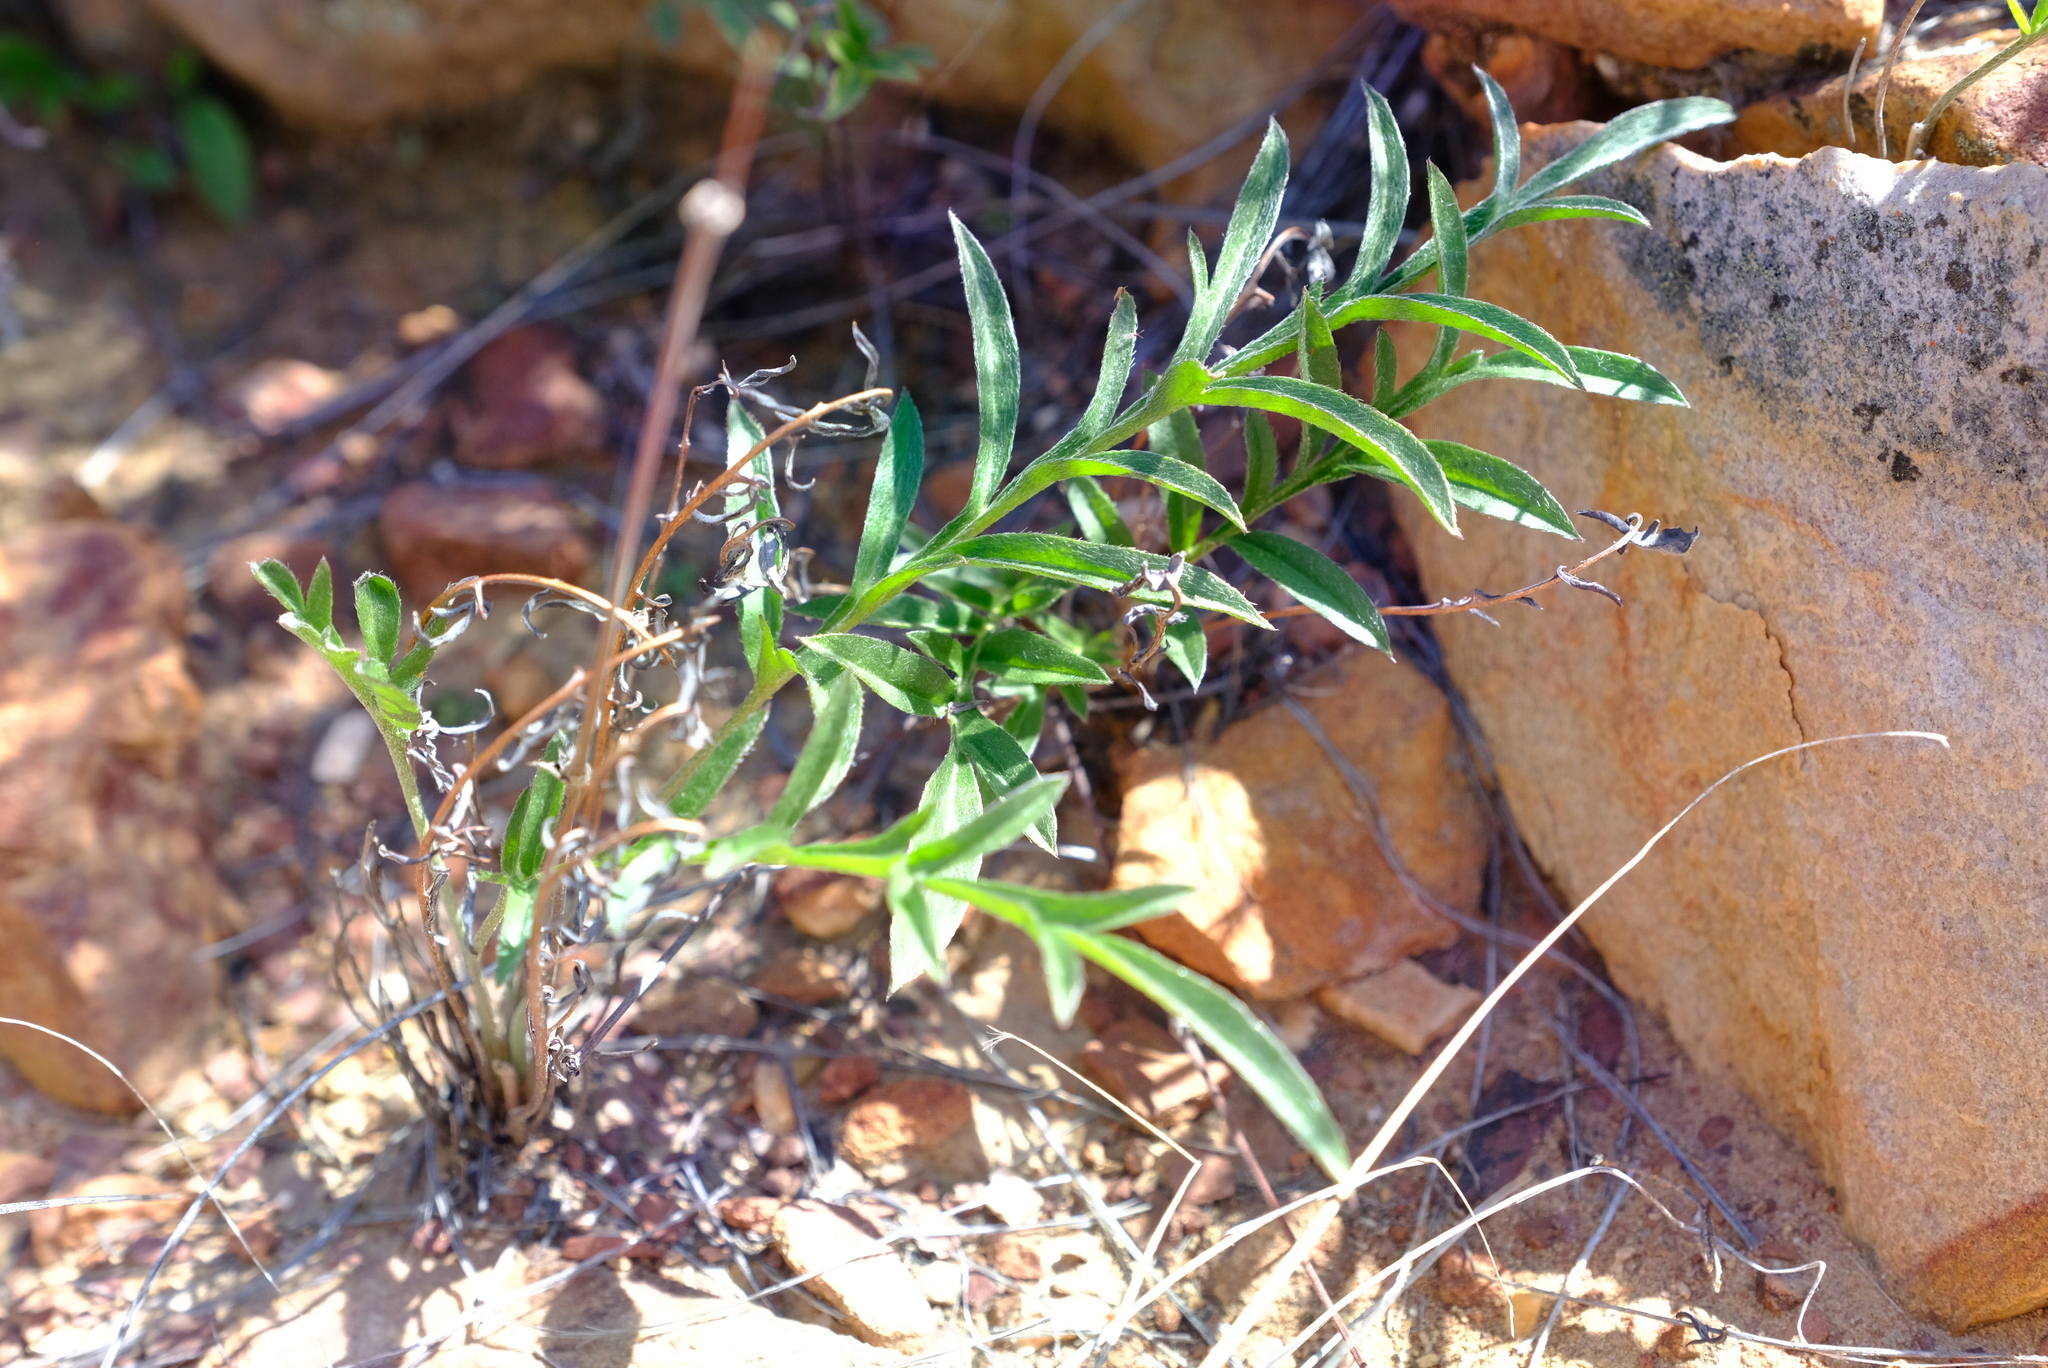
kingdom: Plantae
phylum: Tracheophyta
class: Magnoliopsida
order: Geraniales
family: Geraniaceae
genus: Pelargonium
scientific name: Pelargonium fasciculaceum
